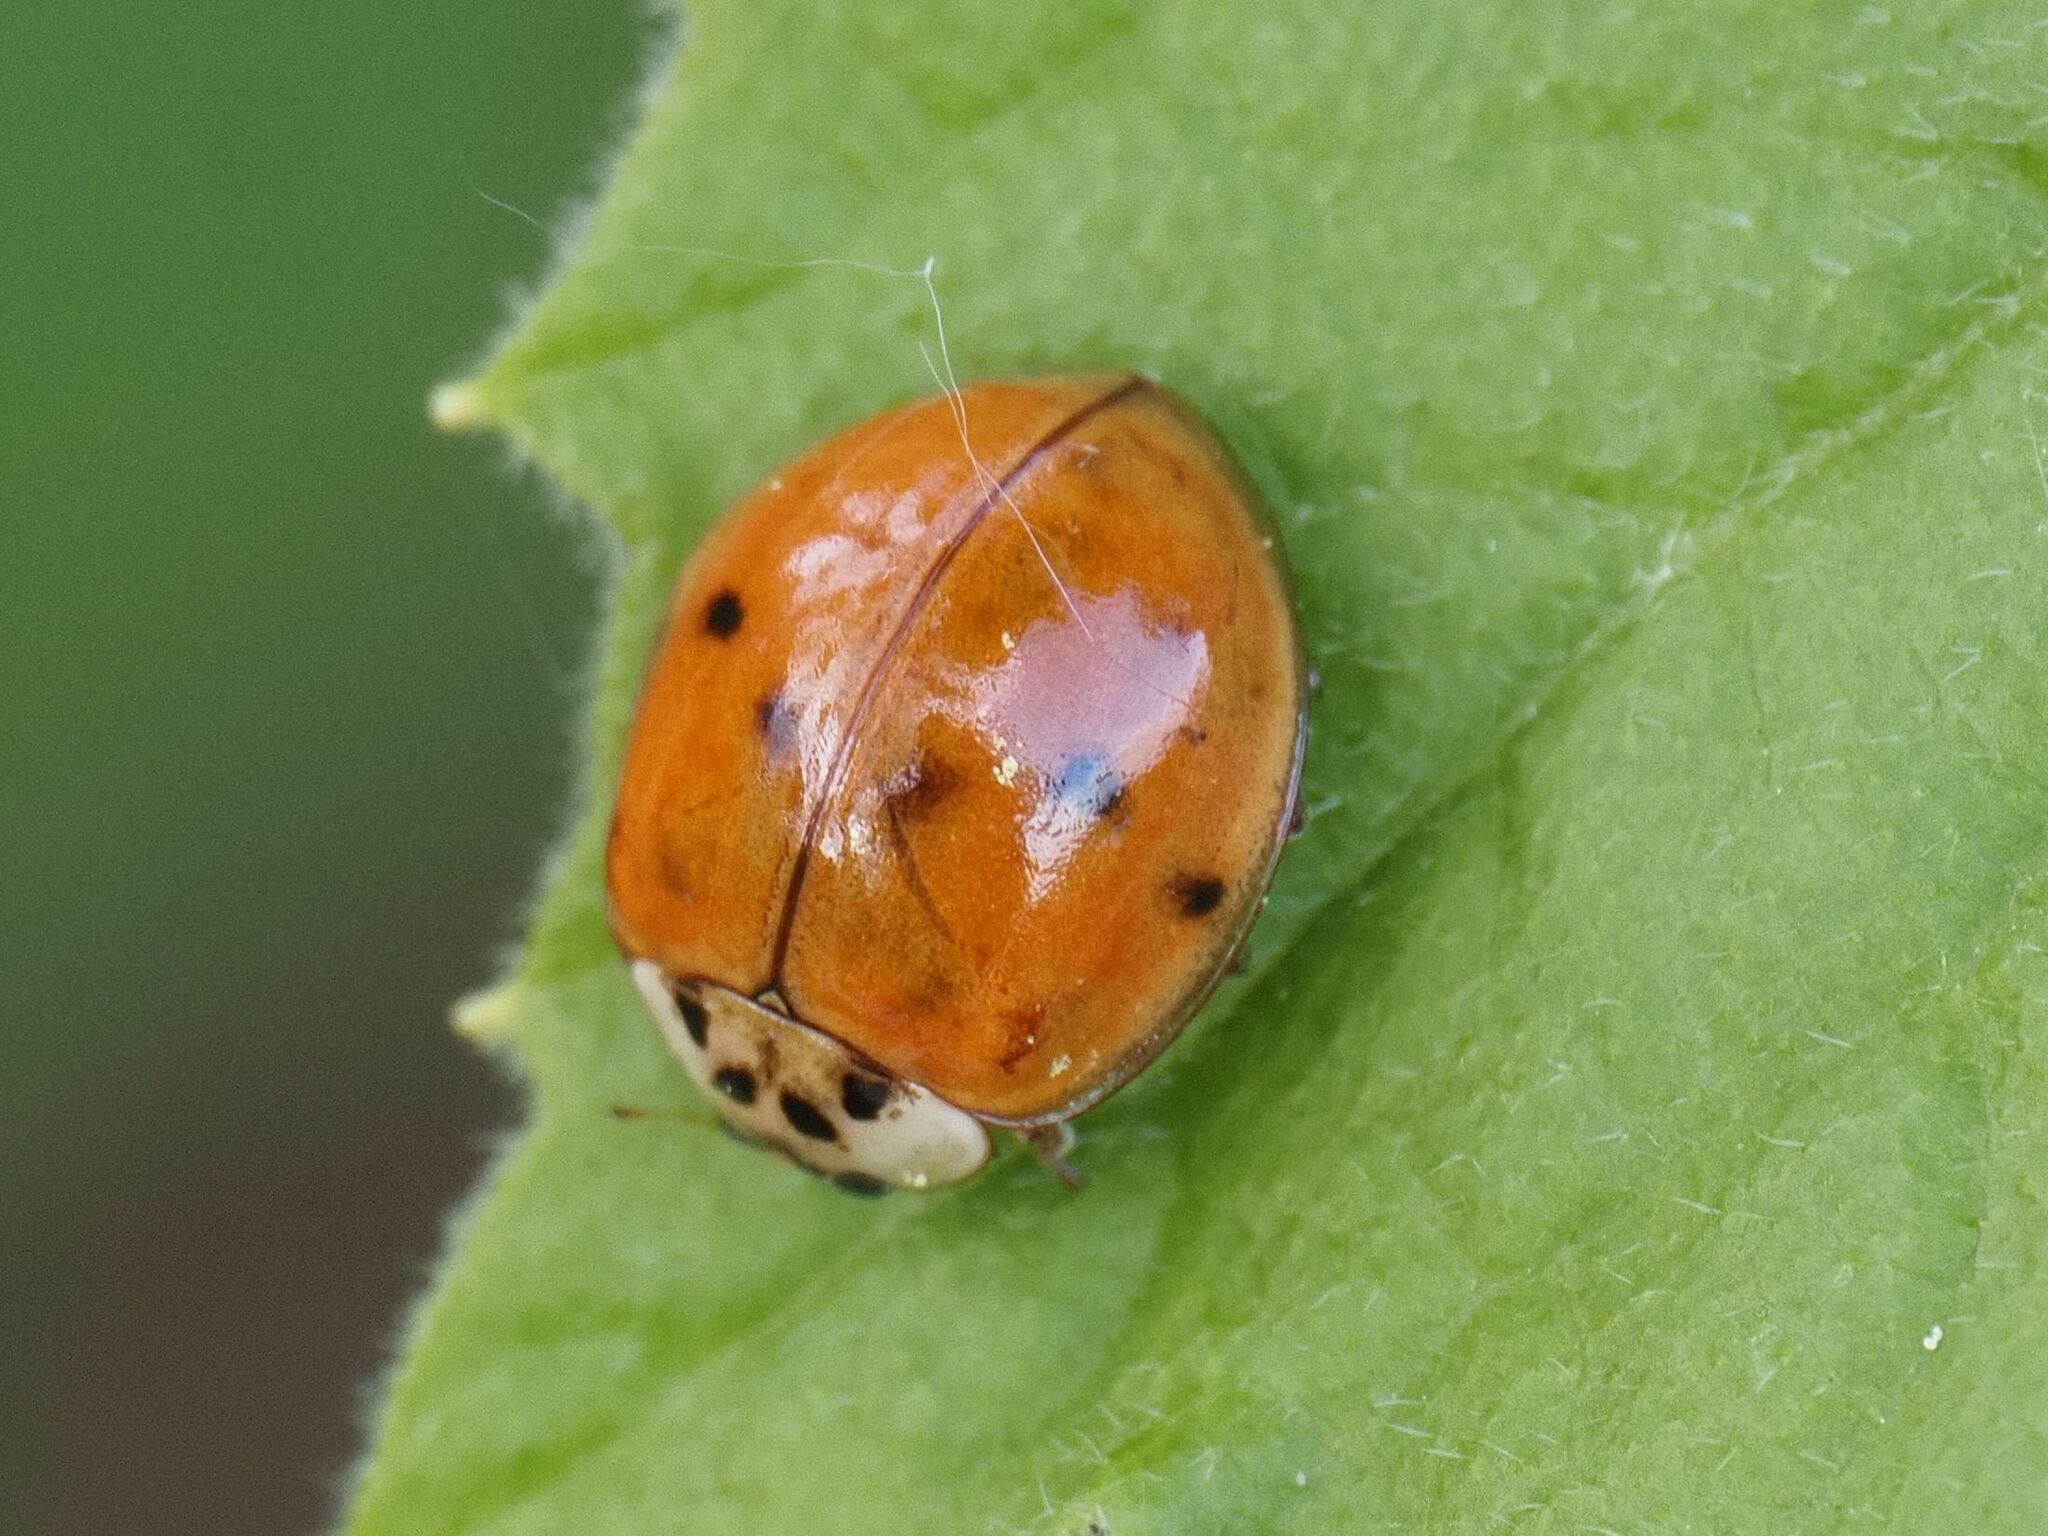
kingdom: Animalia
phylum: Arthropoda
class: Insecta
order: Coleoptera
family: Coccinellidae
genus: Harmonia
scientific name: Harmonia axyridis
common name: Harlequin ladybird
